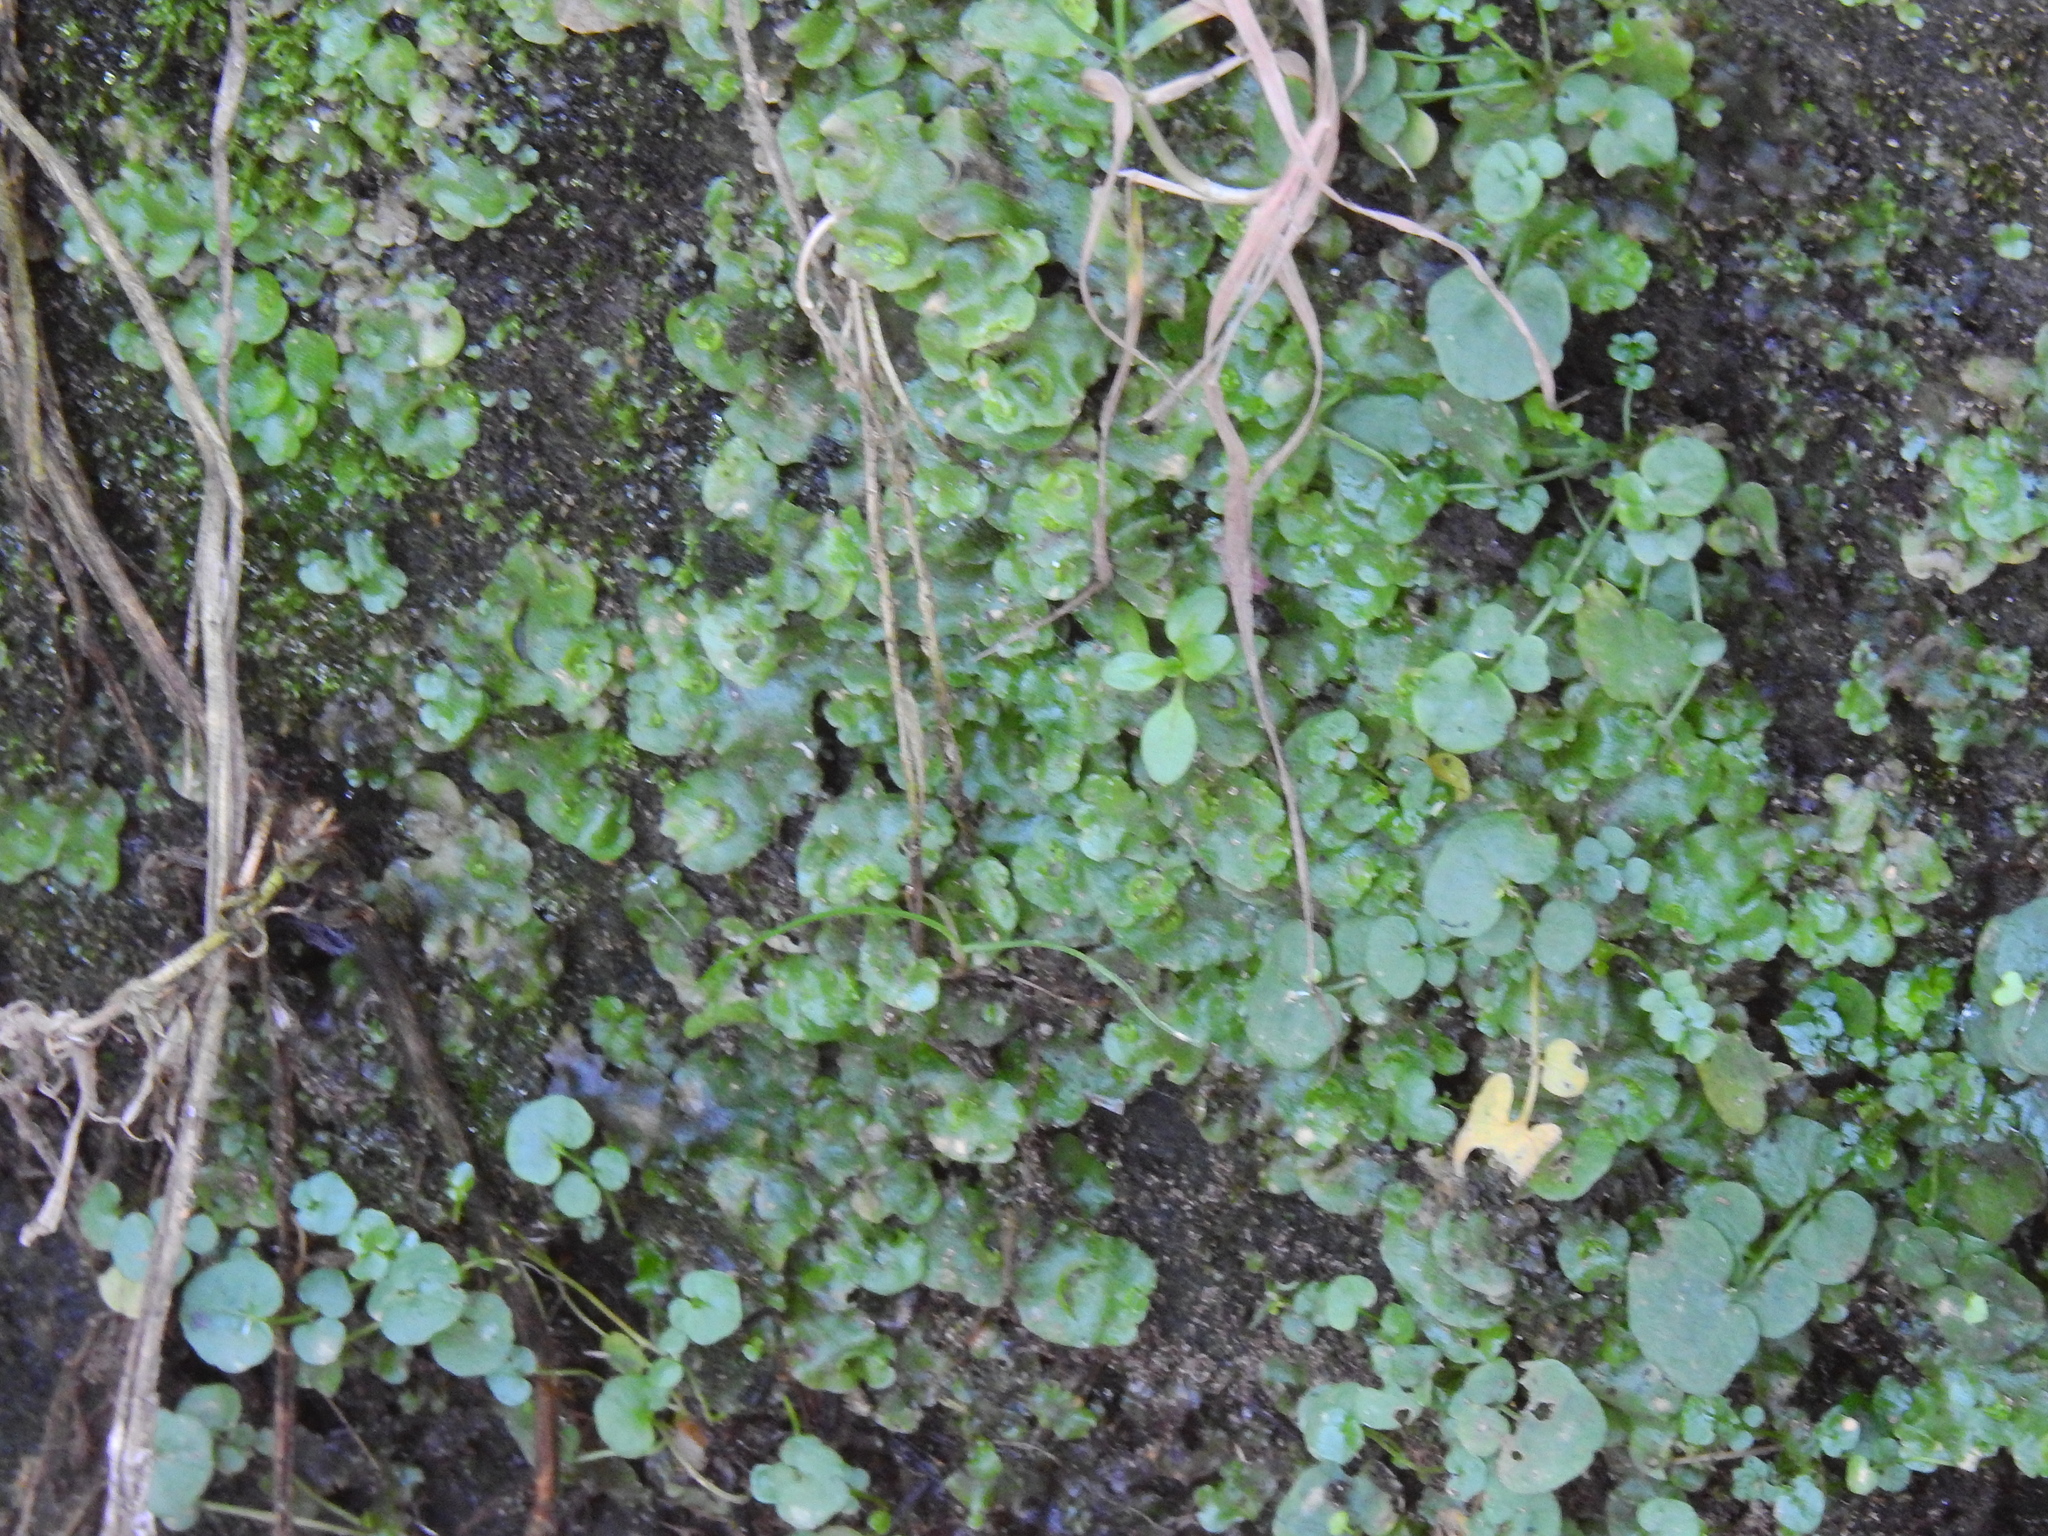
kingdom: Plantae
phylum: Marchantiophyta
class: Marchantiopsida
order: Lunulariales
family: Lunulariaceae
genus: Lunularia
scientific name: Lunularia cruciata
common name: Crescent-cup liverwort
